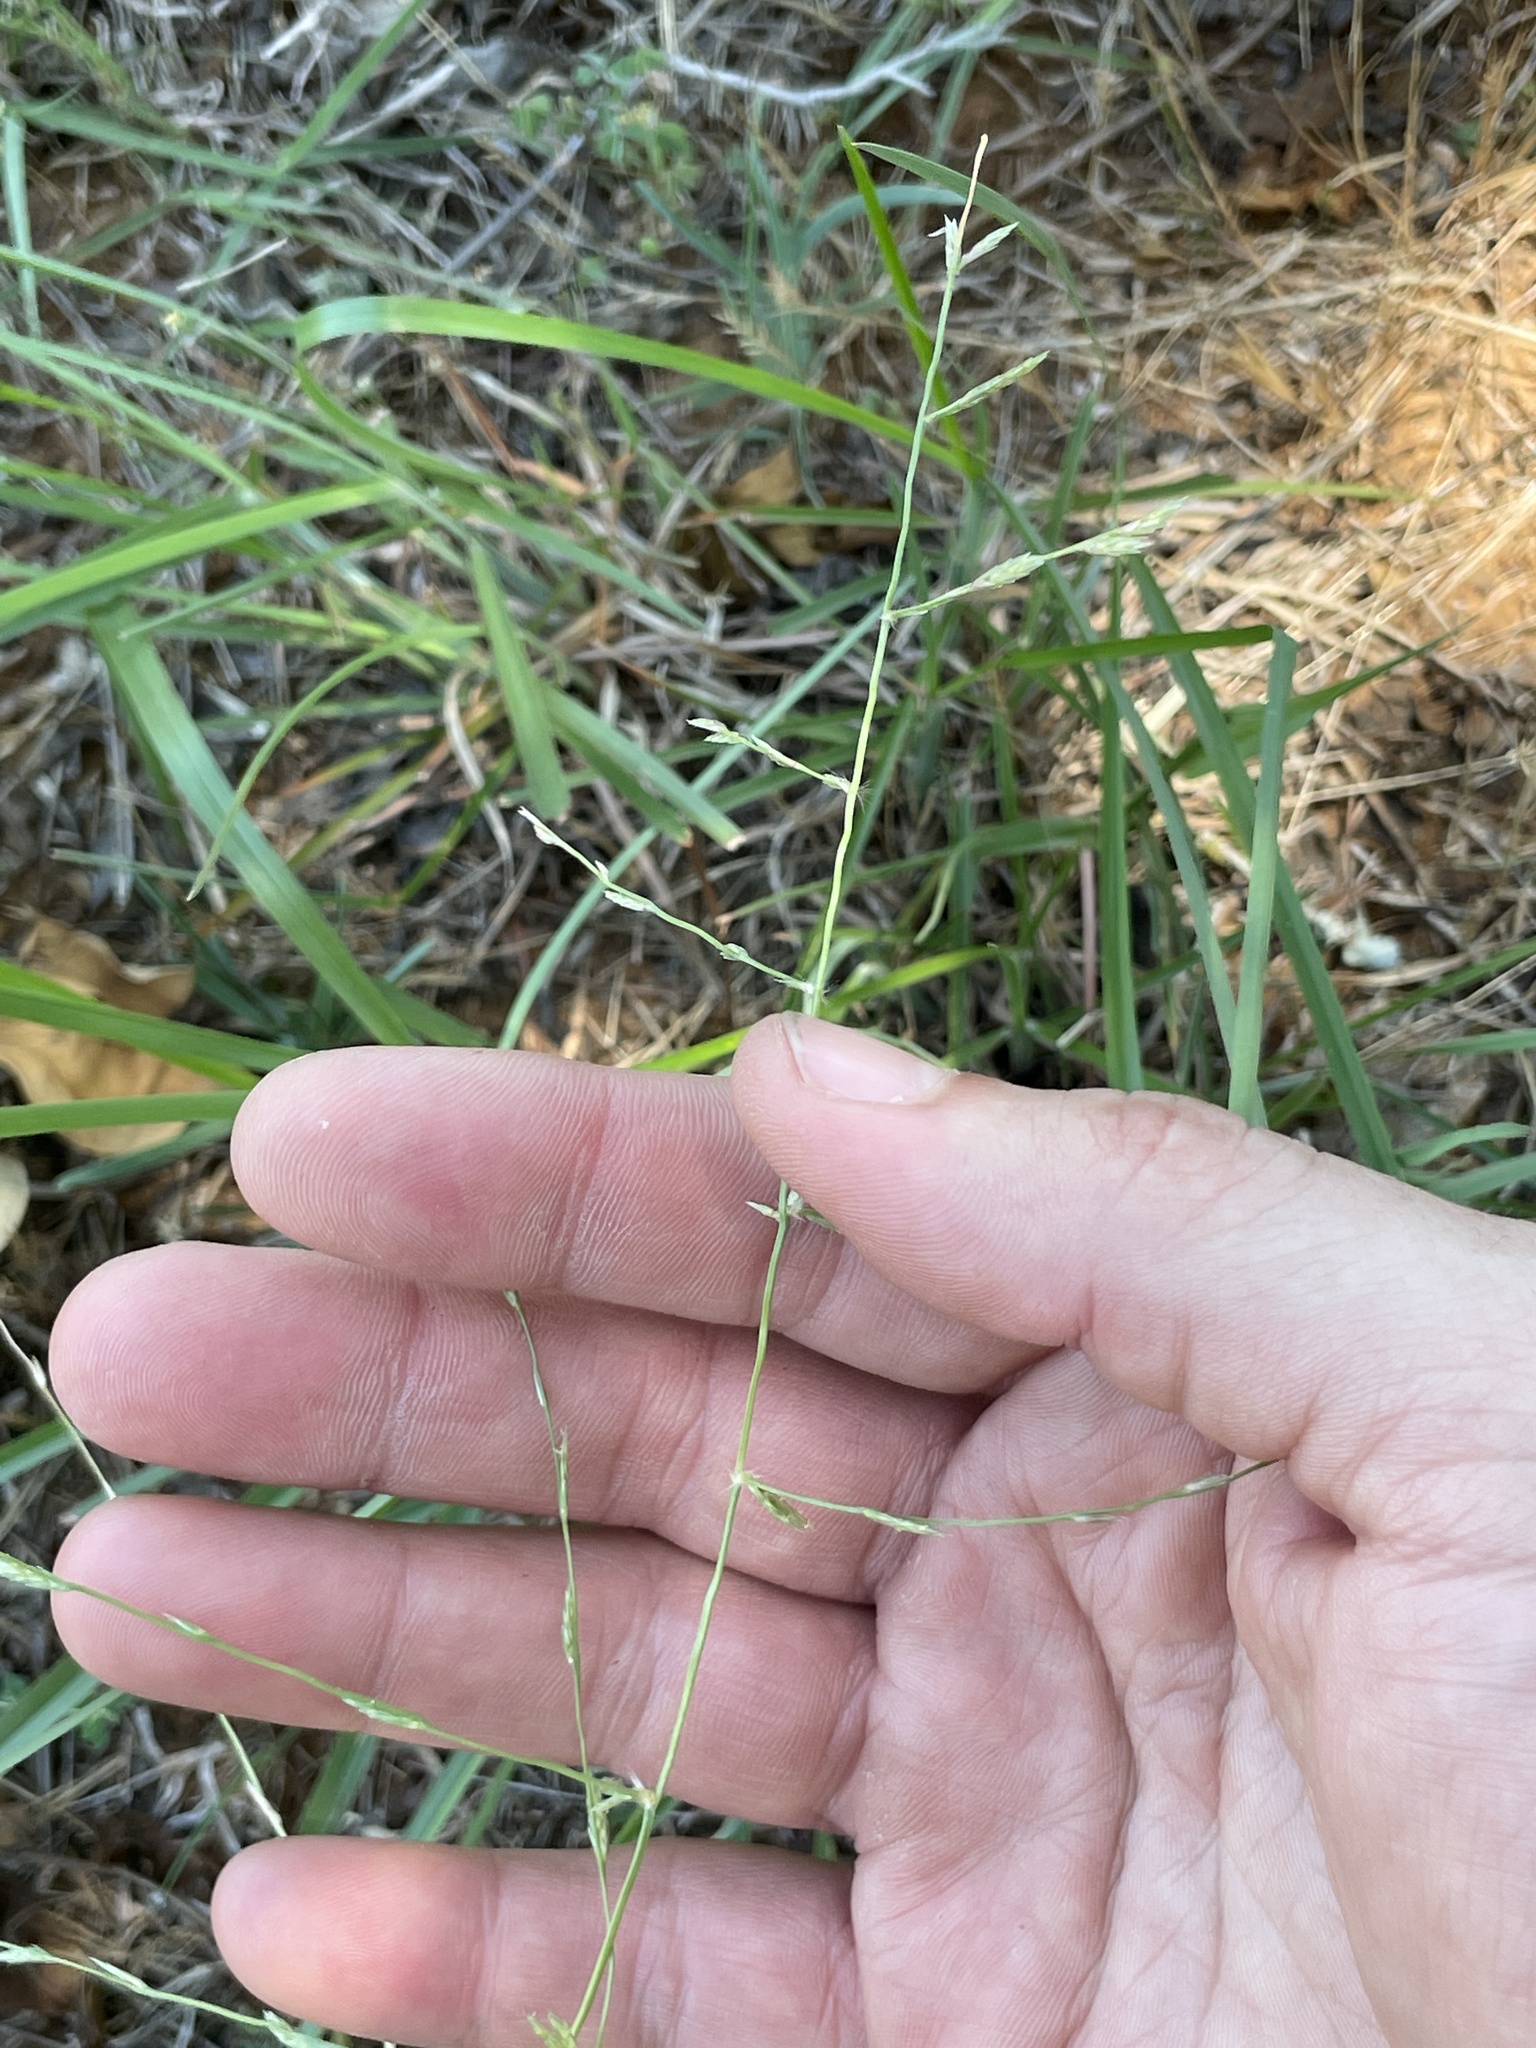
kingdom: Plantae
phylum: Tracheophyta
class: Liliopsida
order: Poales
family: Poaceae
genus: Eragrostis
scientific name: Eragrostis sessilispica
